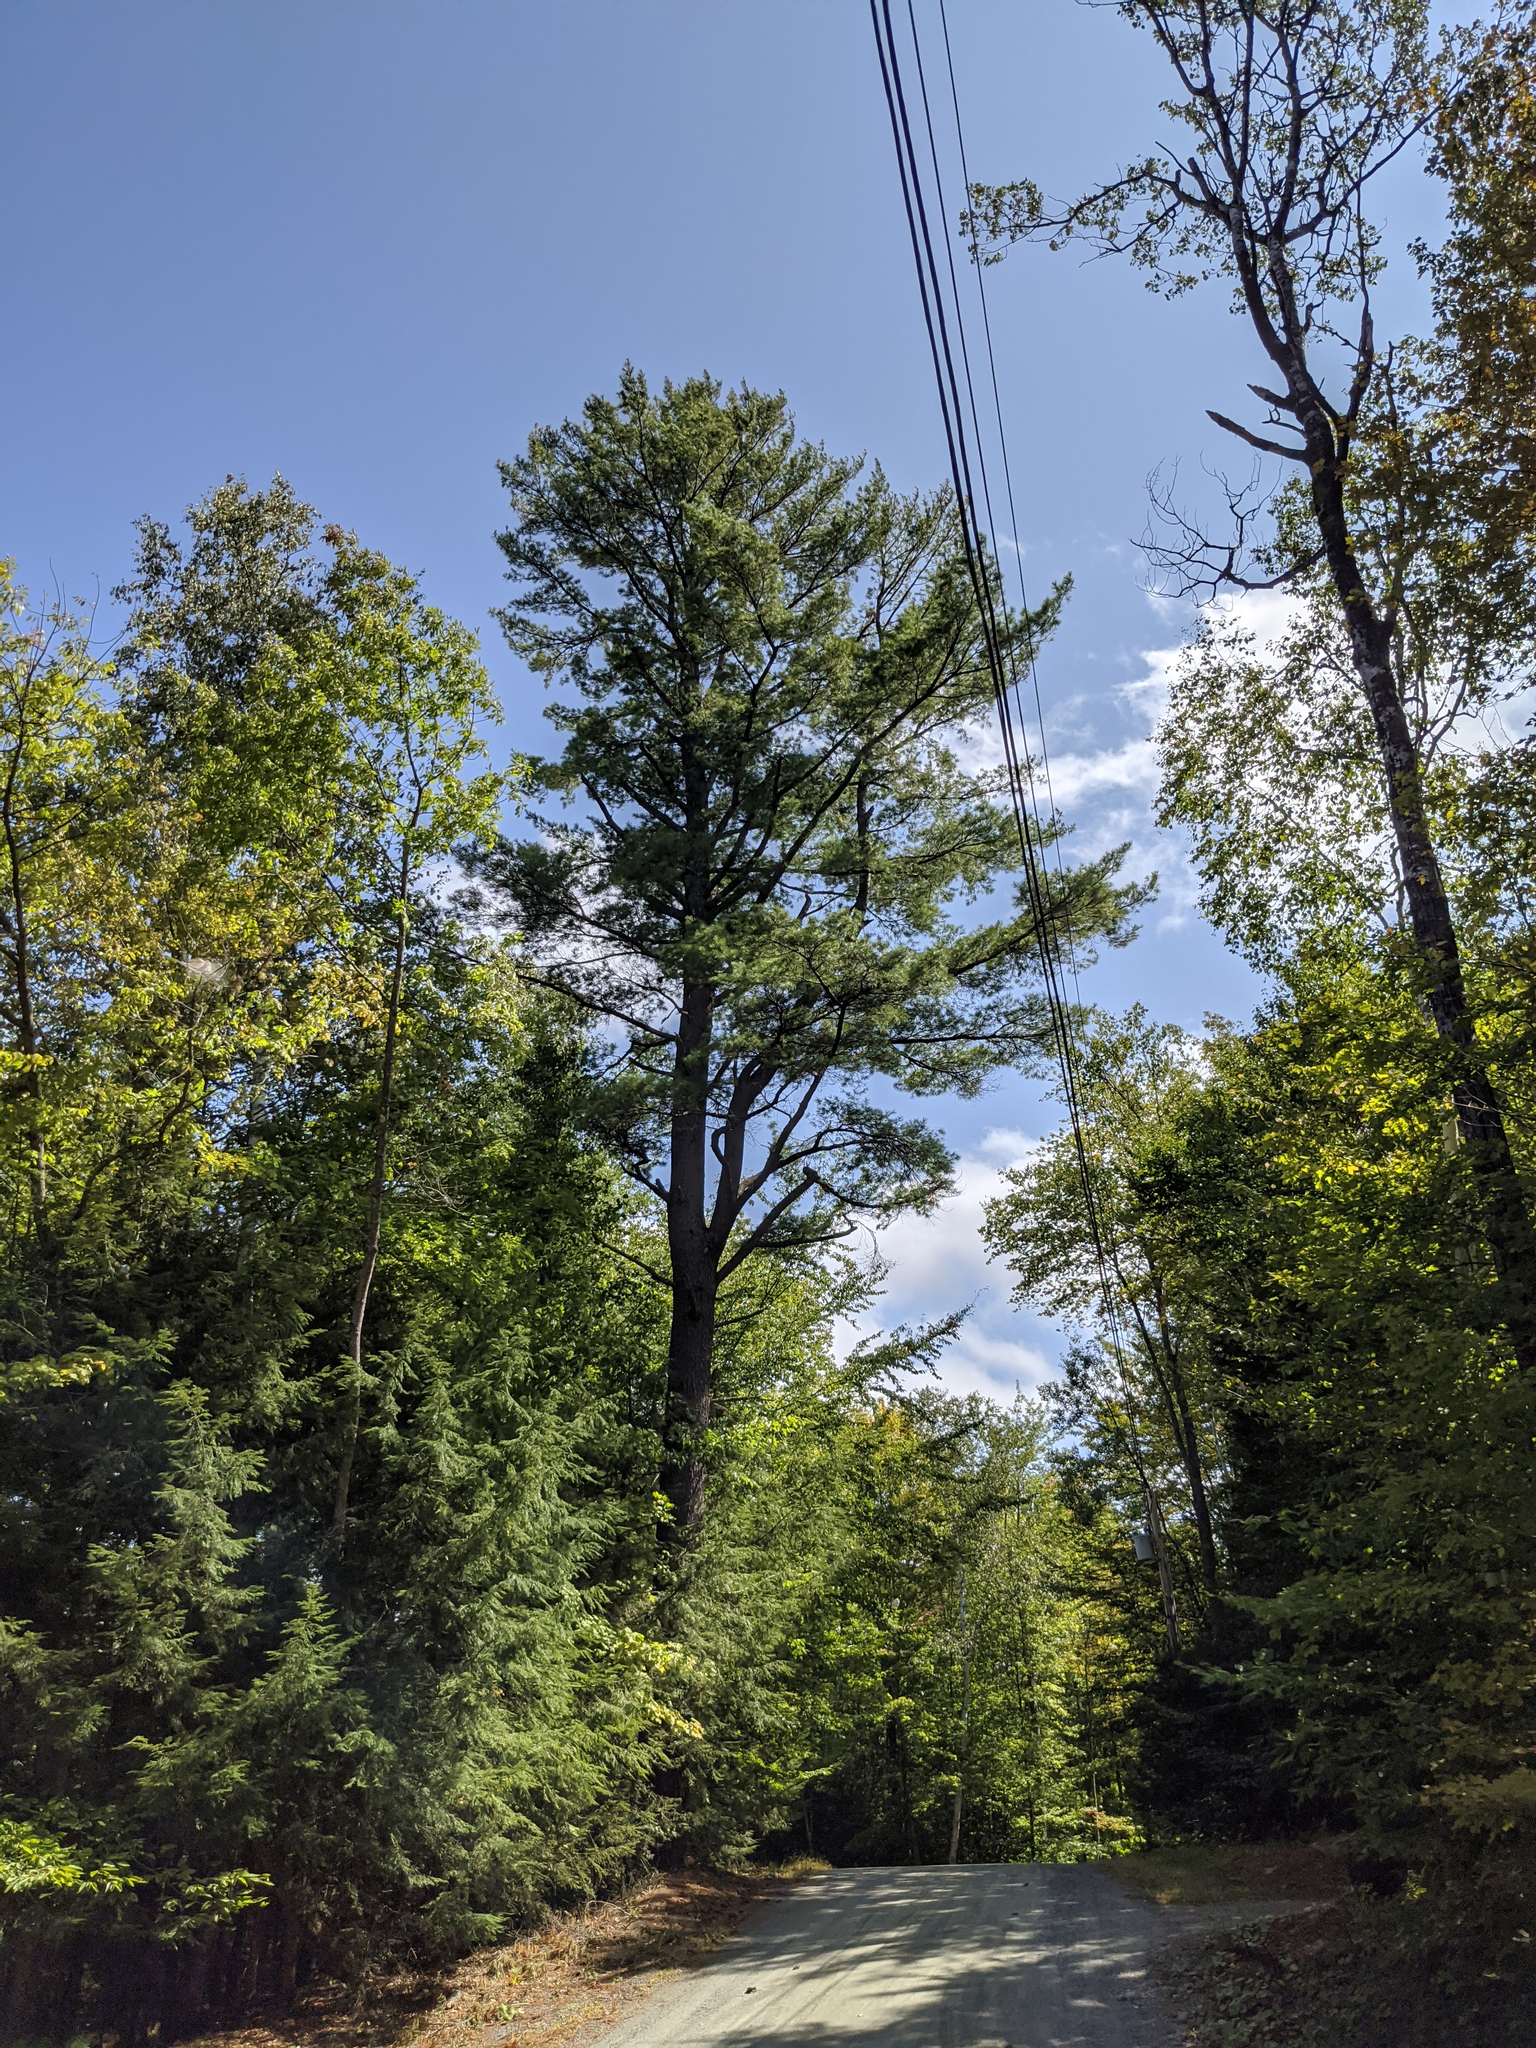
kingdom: Plantae
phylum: Tracheophyta
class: Pinopsida
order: Pinales
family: Pinaceae
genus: Pinus
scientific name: Pinus strobus
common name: Weymouth pine
